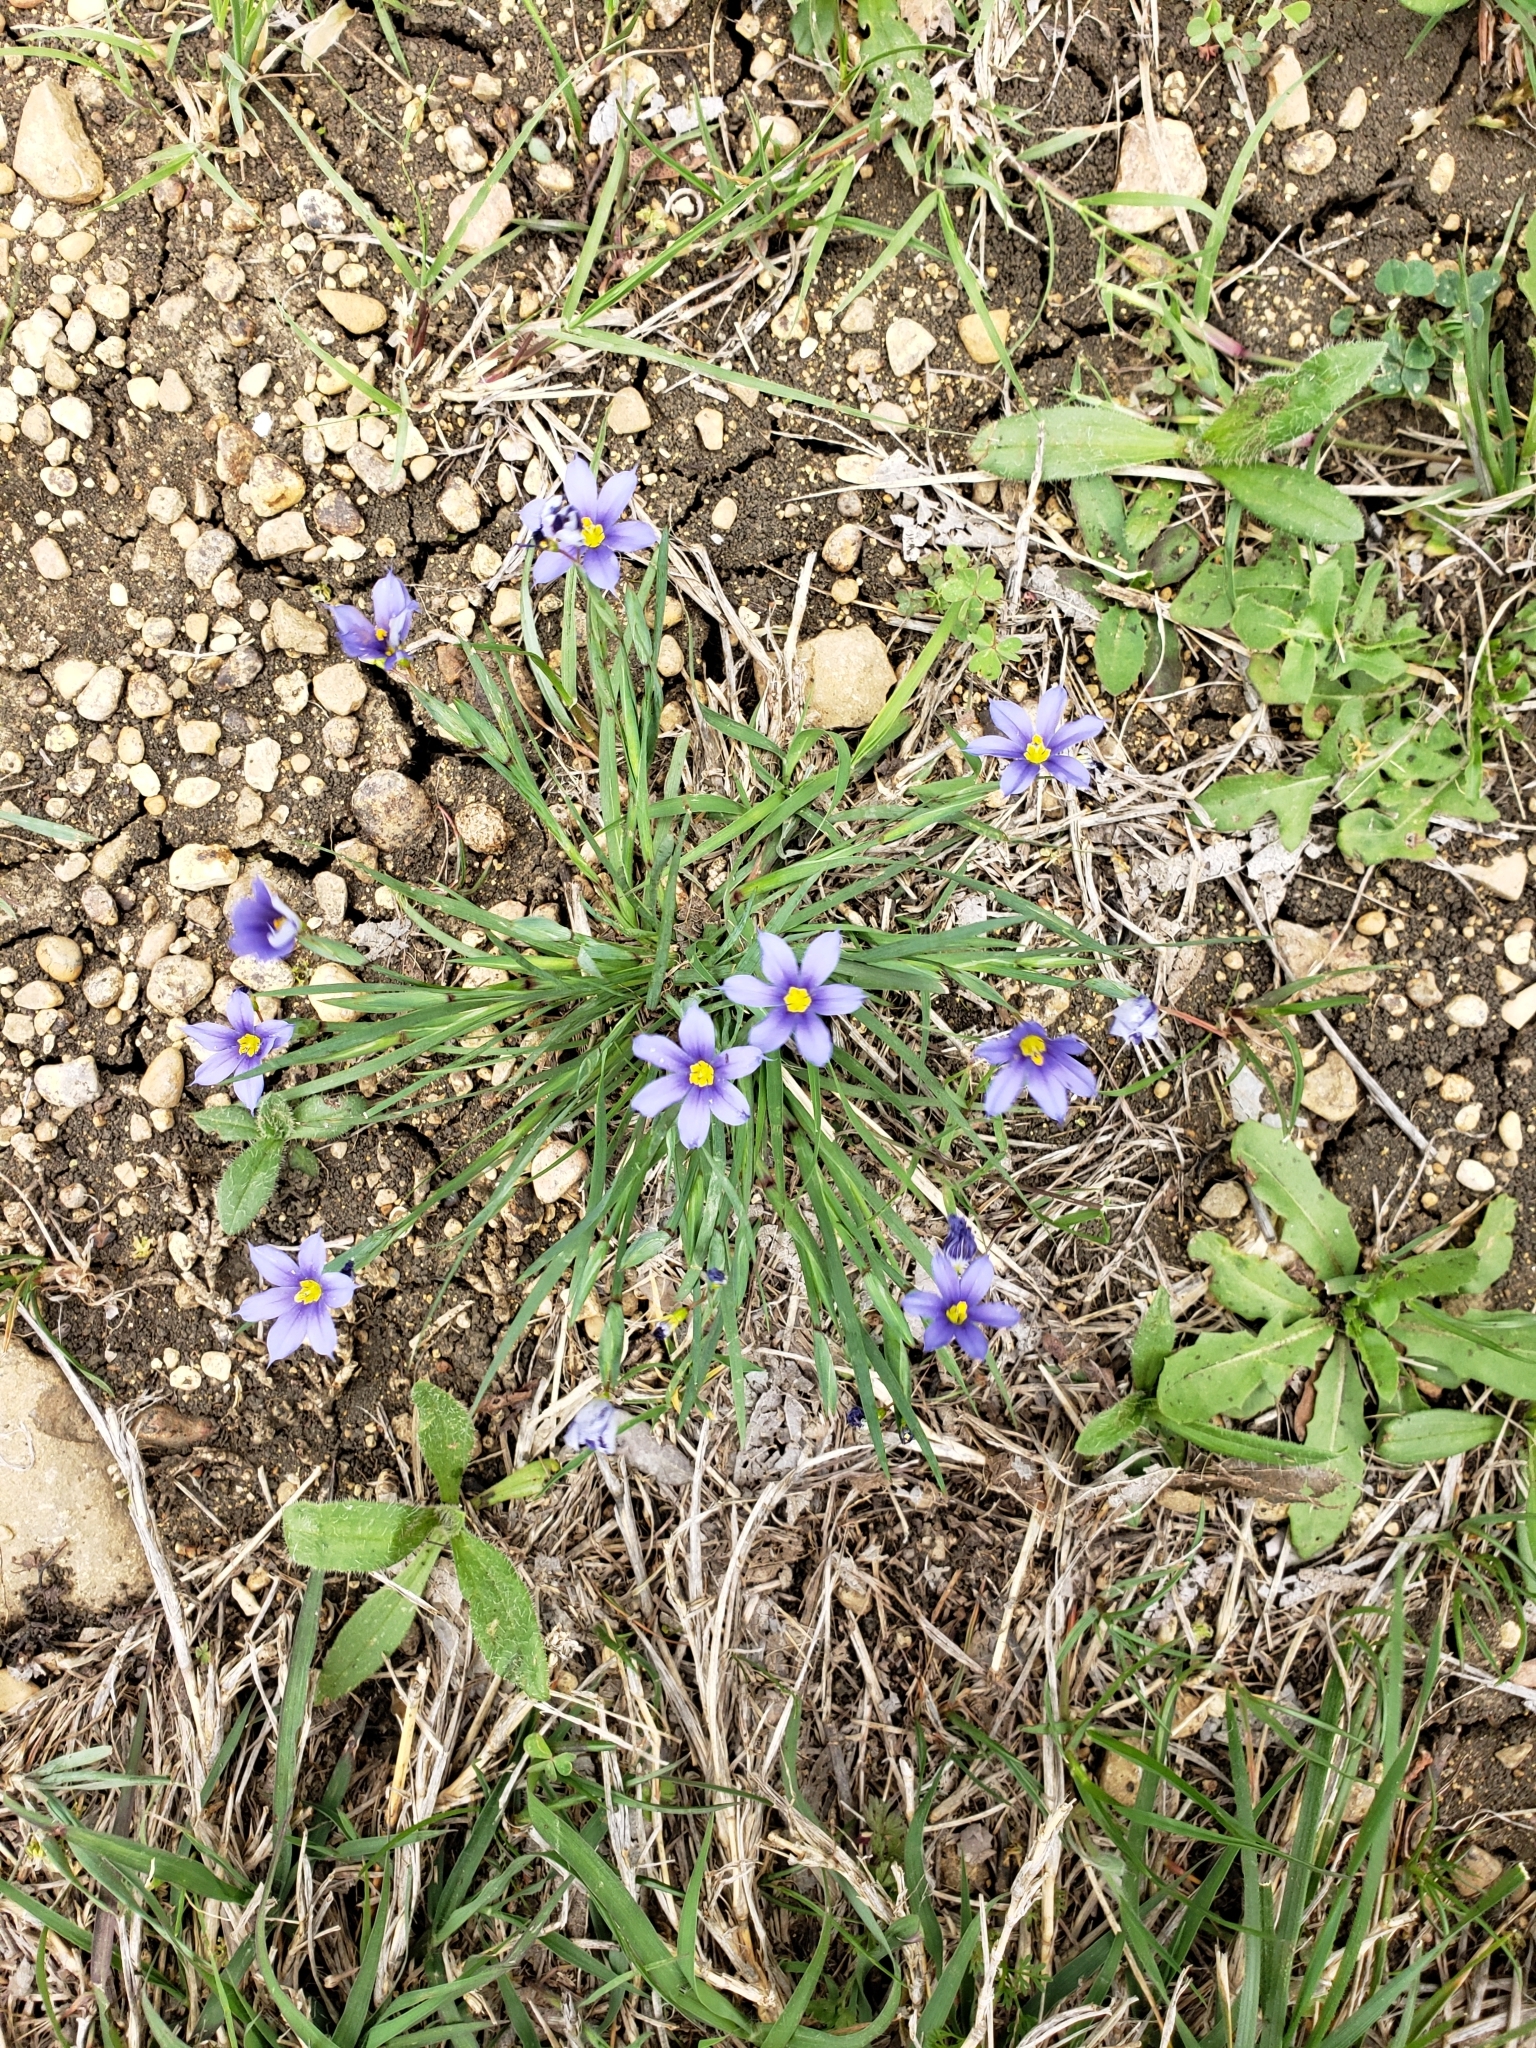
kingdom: Plantae
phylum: Tracheophyta
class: Liliopsida
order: Asparagales
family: Iridaceae
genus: Sisyrinchium
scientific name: Sisyrinchium pruinosum
